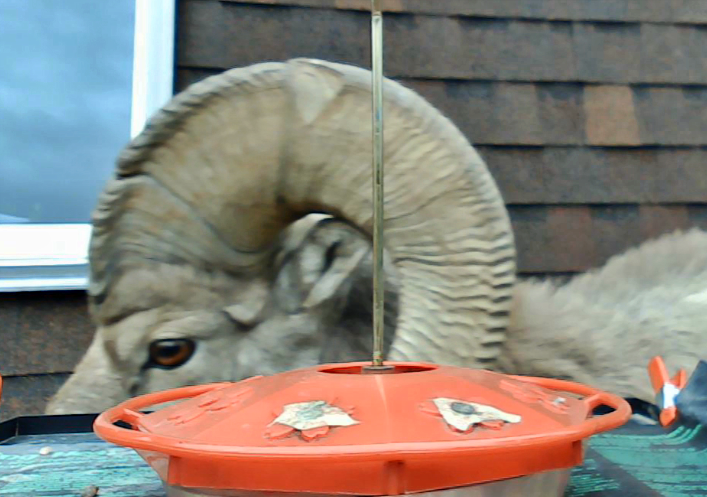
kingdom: Animalia
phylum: Chordata
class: Mammalia
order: Artiodactyla
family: Bovidae
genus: Ovis
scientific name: Ovis canadensis
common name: Bighorn sheep
